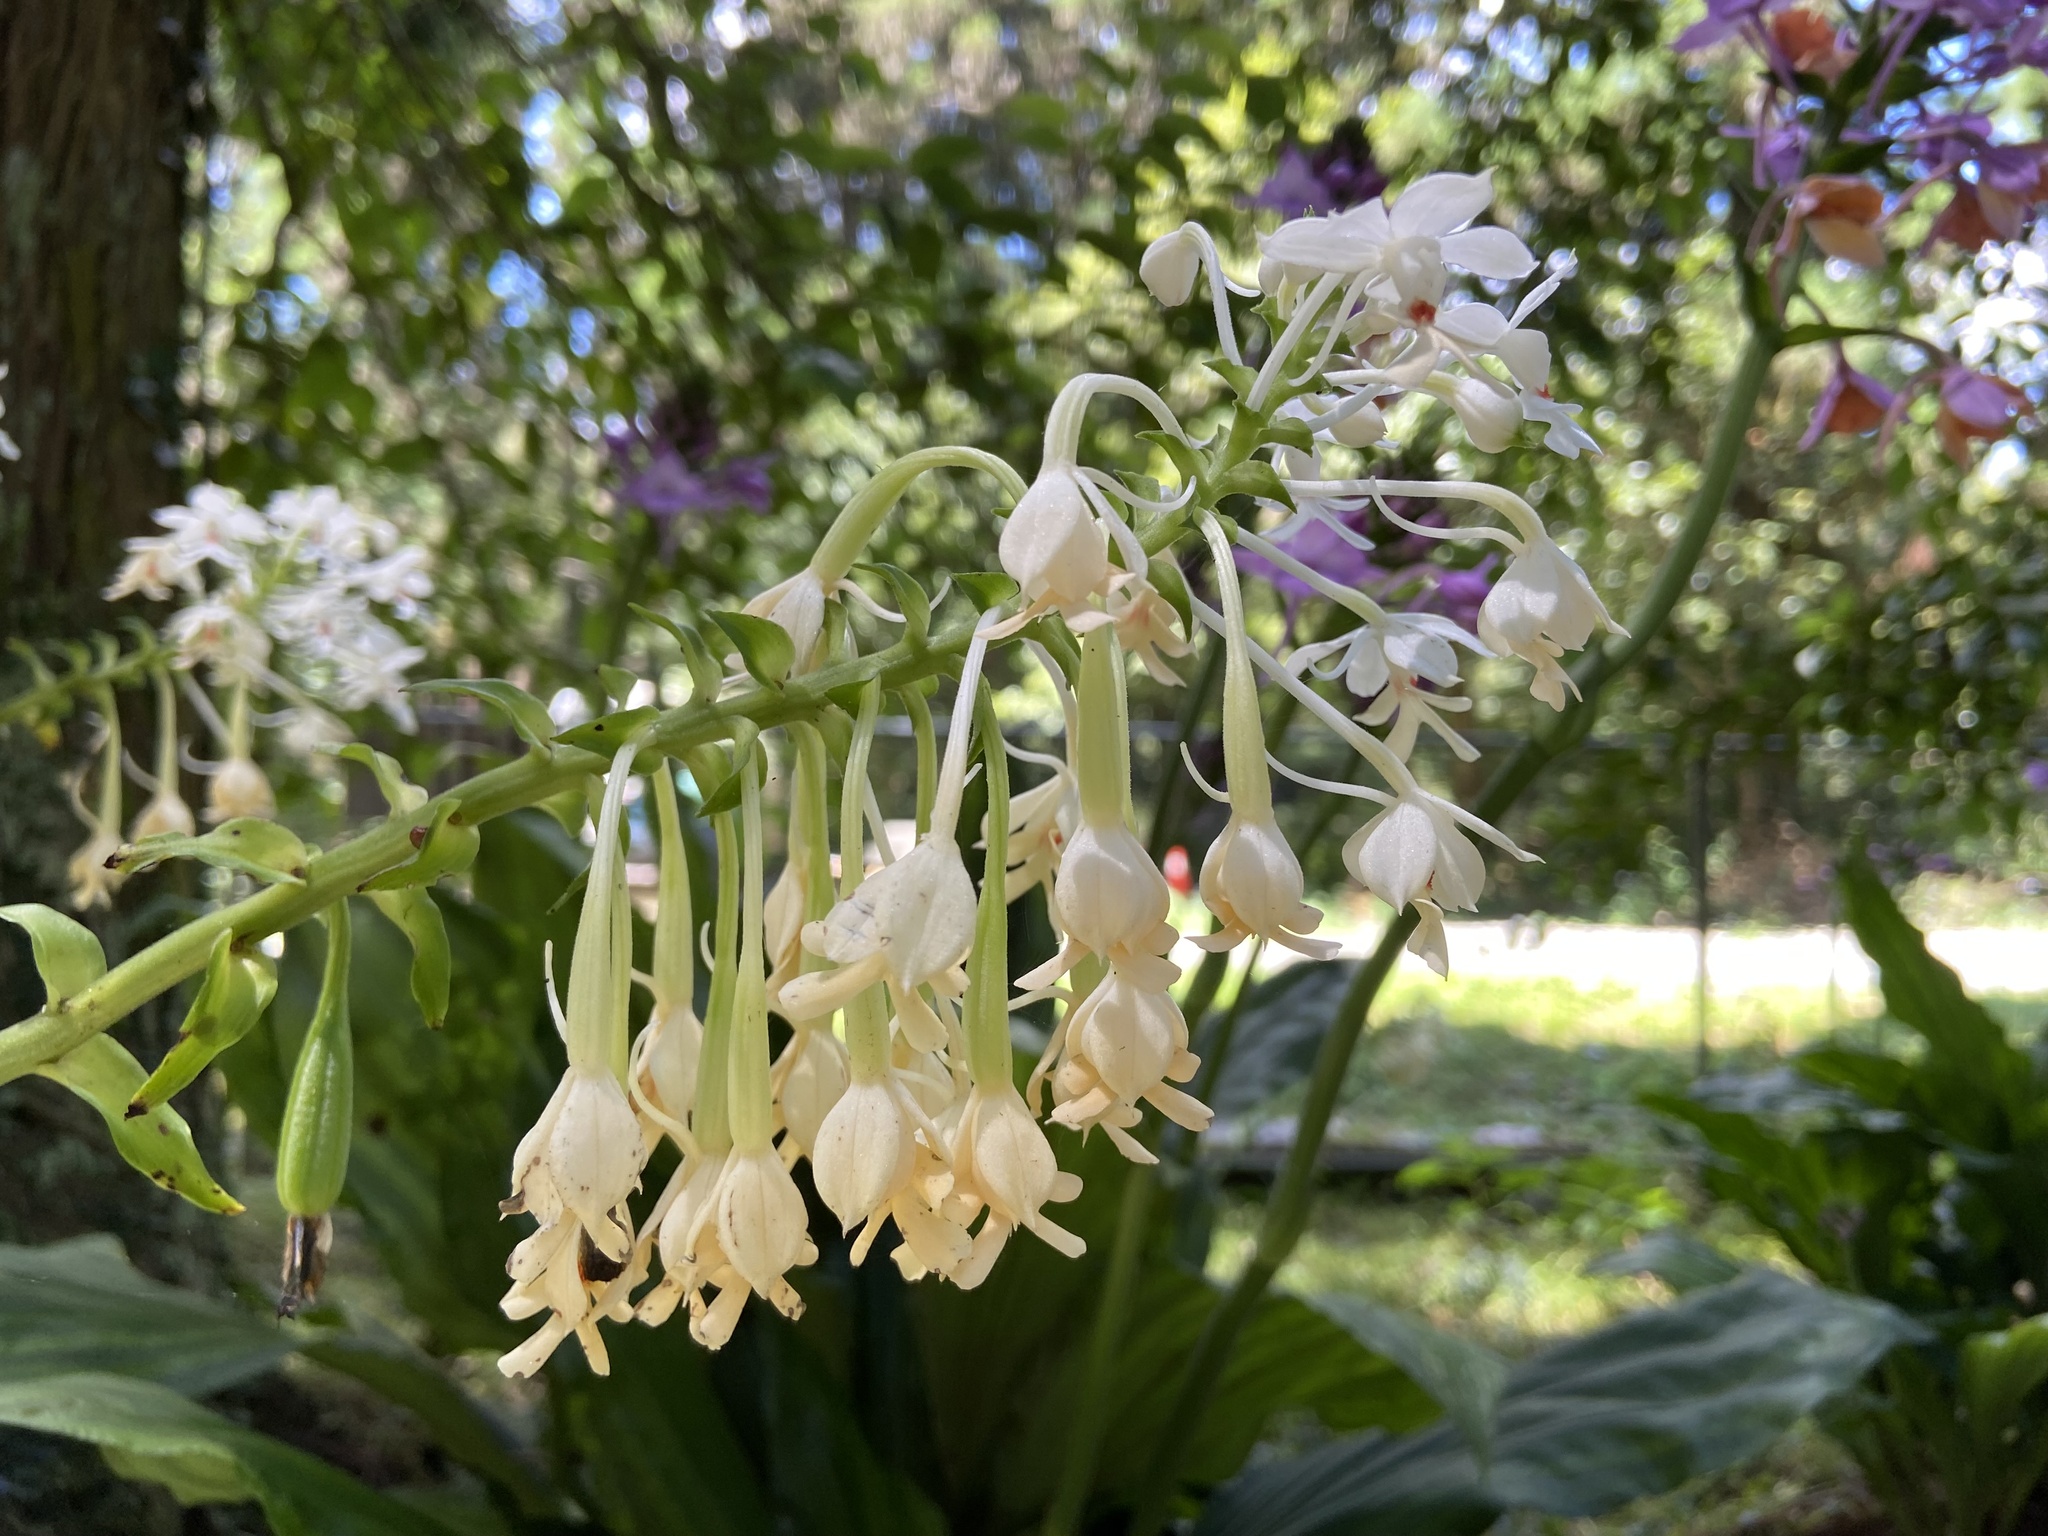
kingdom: Plantae
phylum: Tracheophyta
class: Liliopsida
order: Asparagales
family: Orchidaceae
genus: Calanthe
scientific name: Calanthe triplicata
